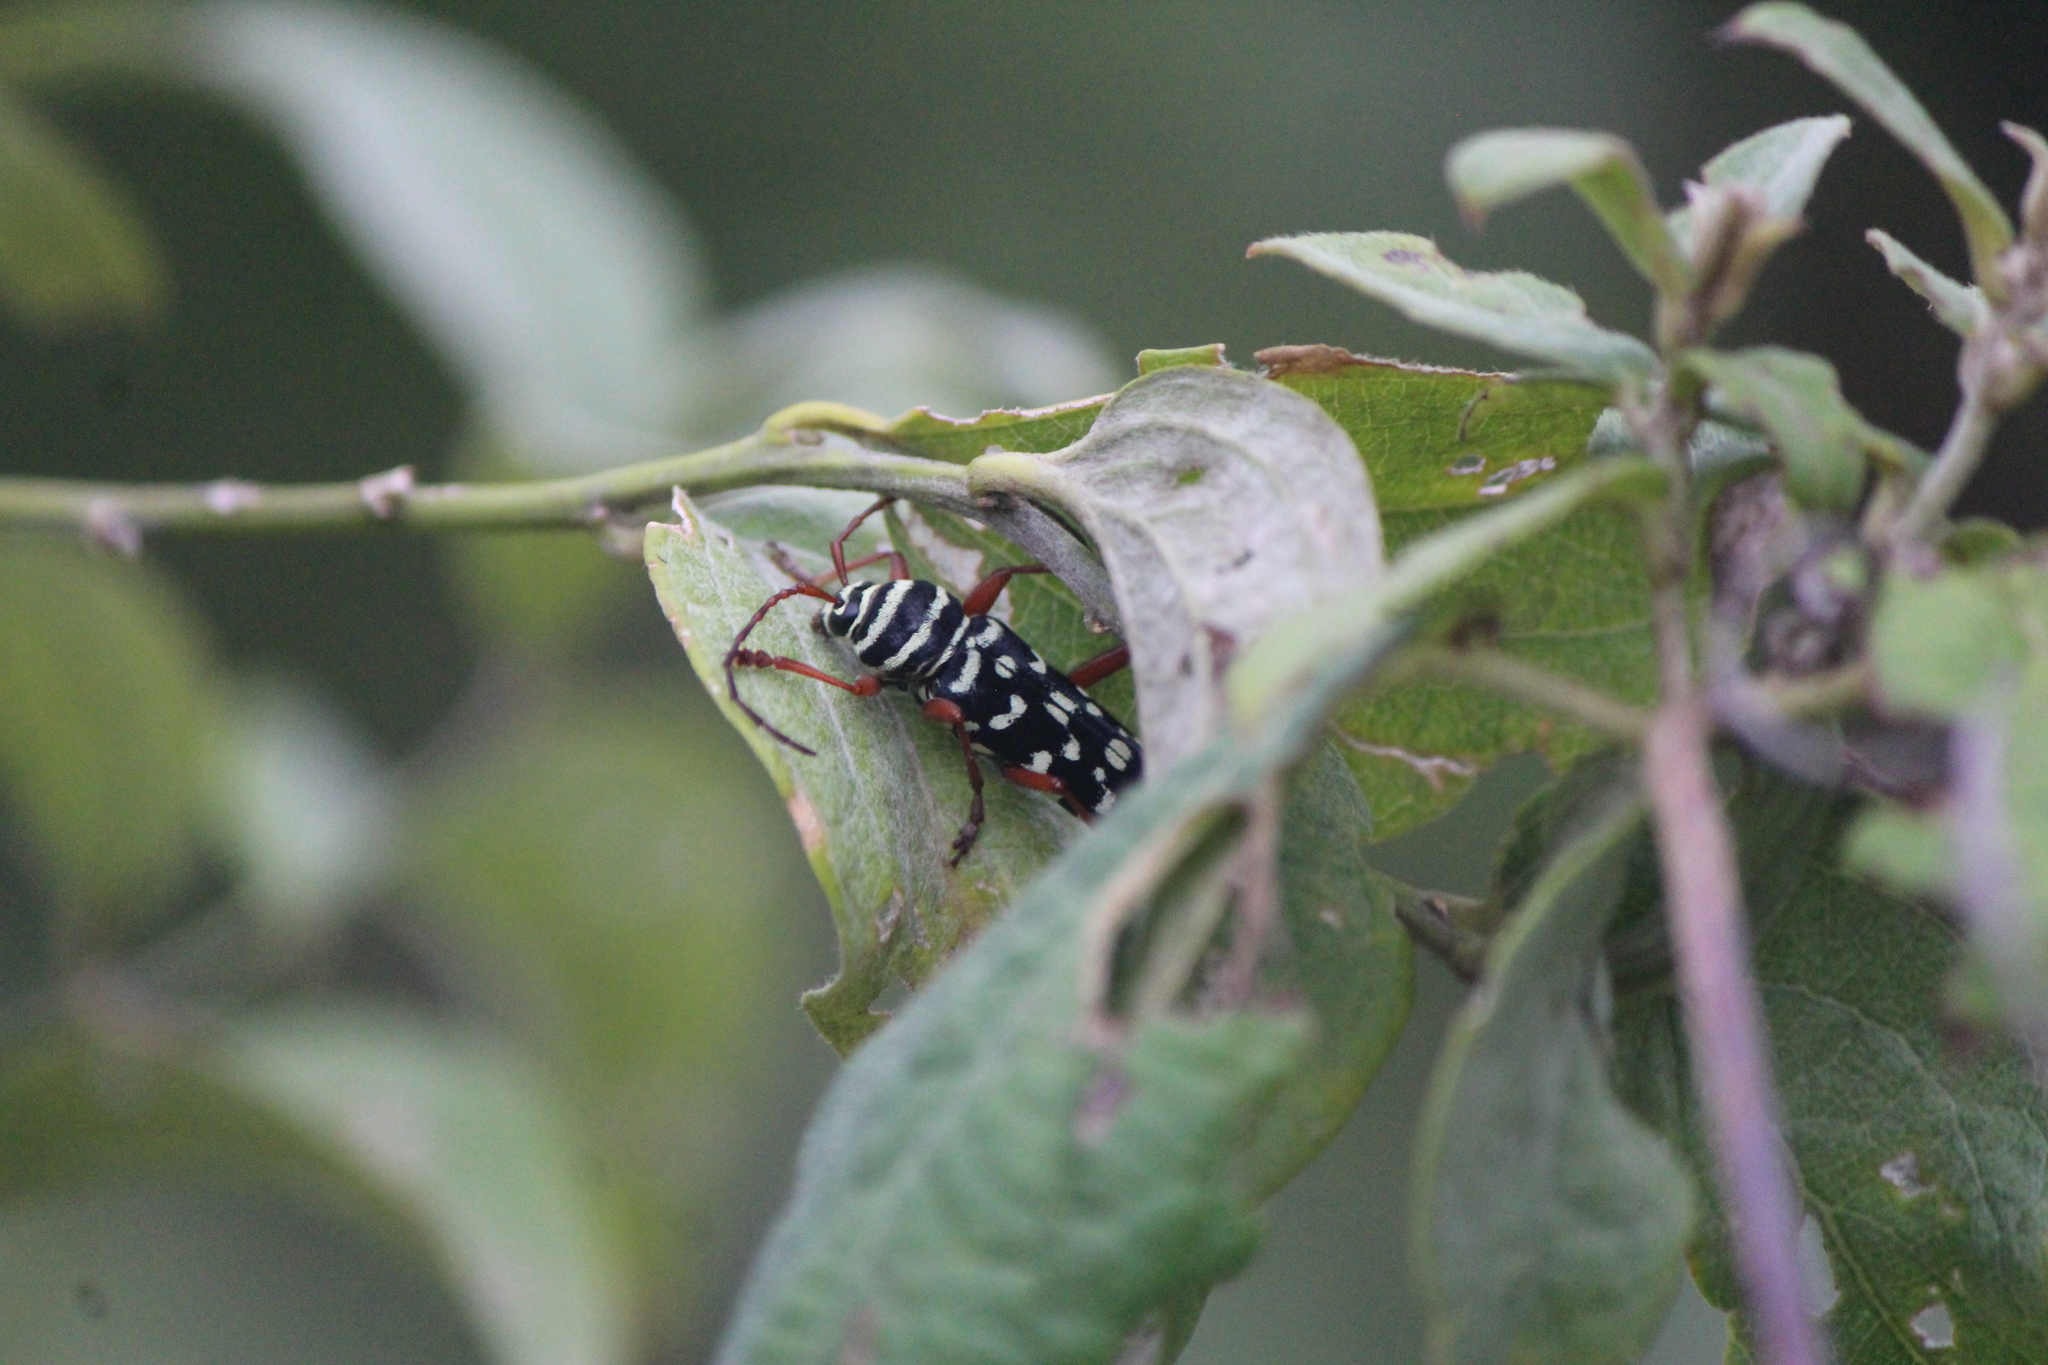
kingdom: Animalia
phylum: Arthropoda
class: Insecta
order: Coleoptera
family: Cerambycidae
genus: Placosternus
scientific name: Placosternus erythropus
